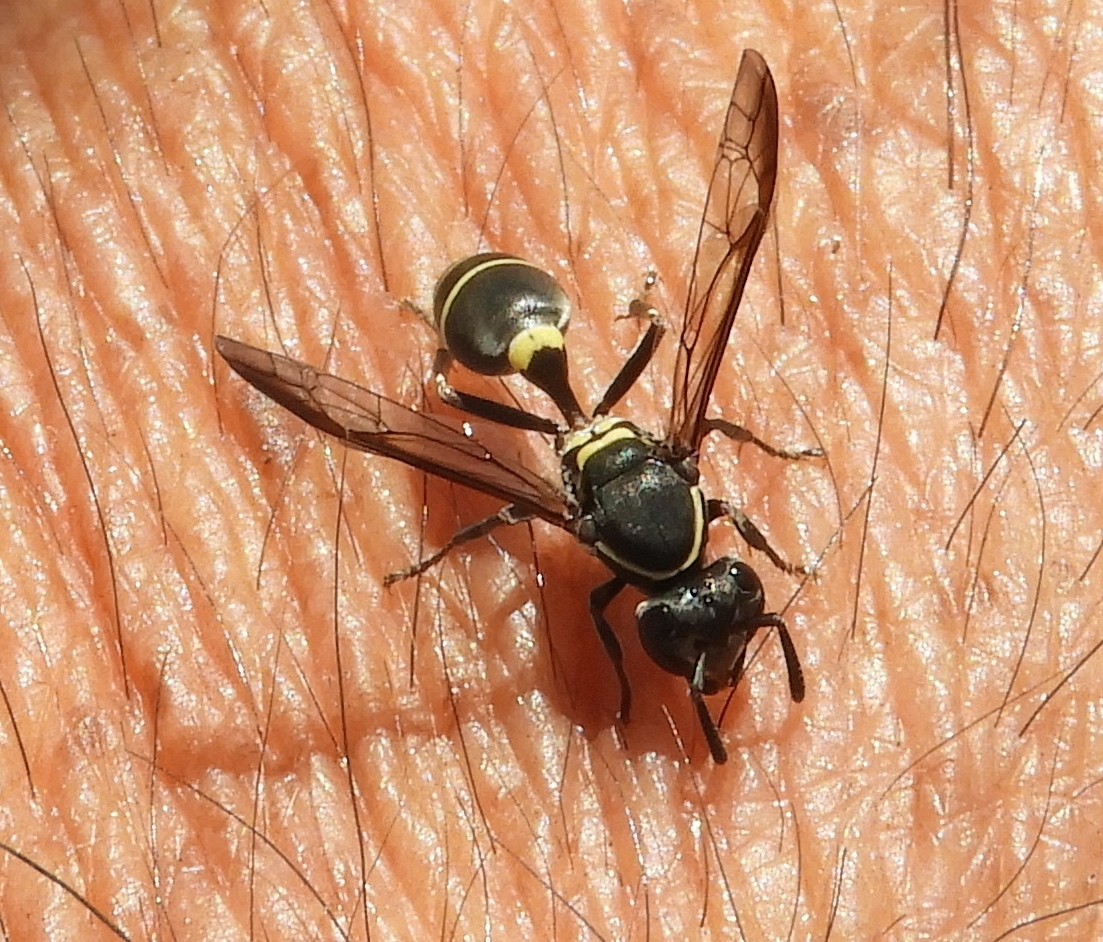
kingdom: Animalia
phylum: Arthropoda
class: Insecta
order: Hymenoptera
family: Vespidae
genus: Myrapetra
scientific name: Myrapetra
